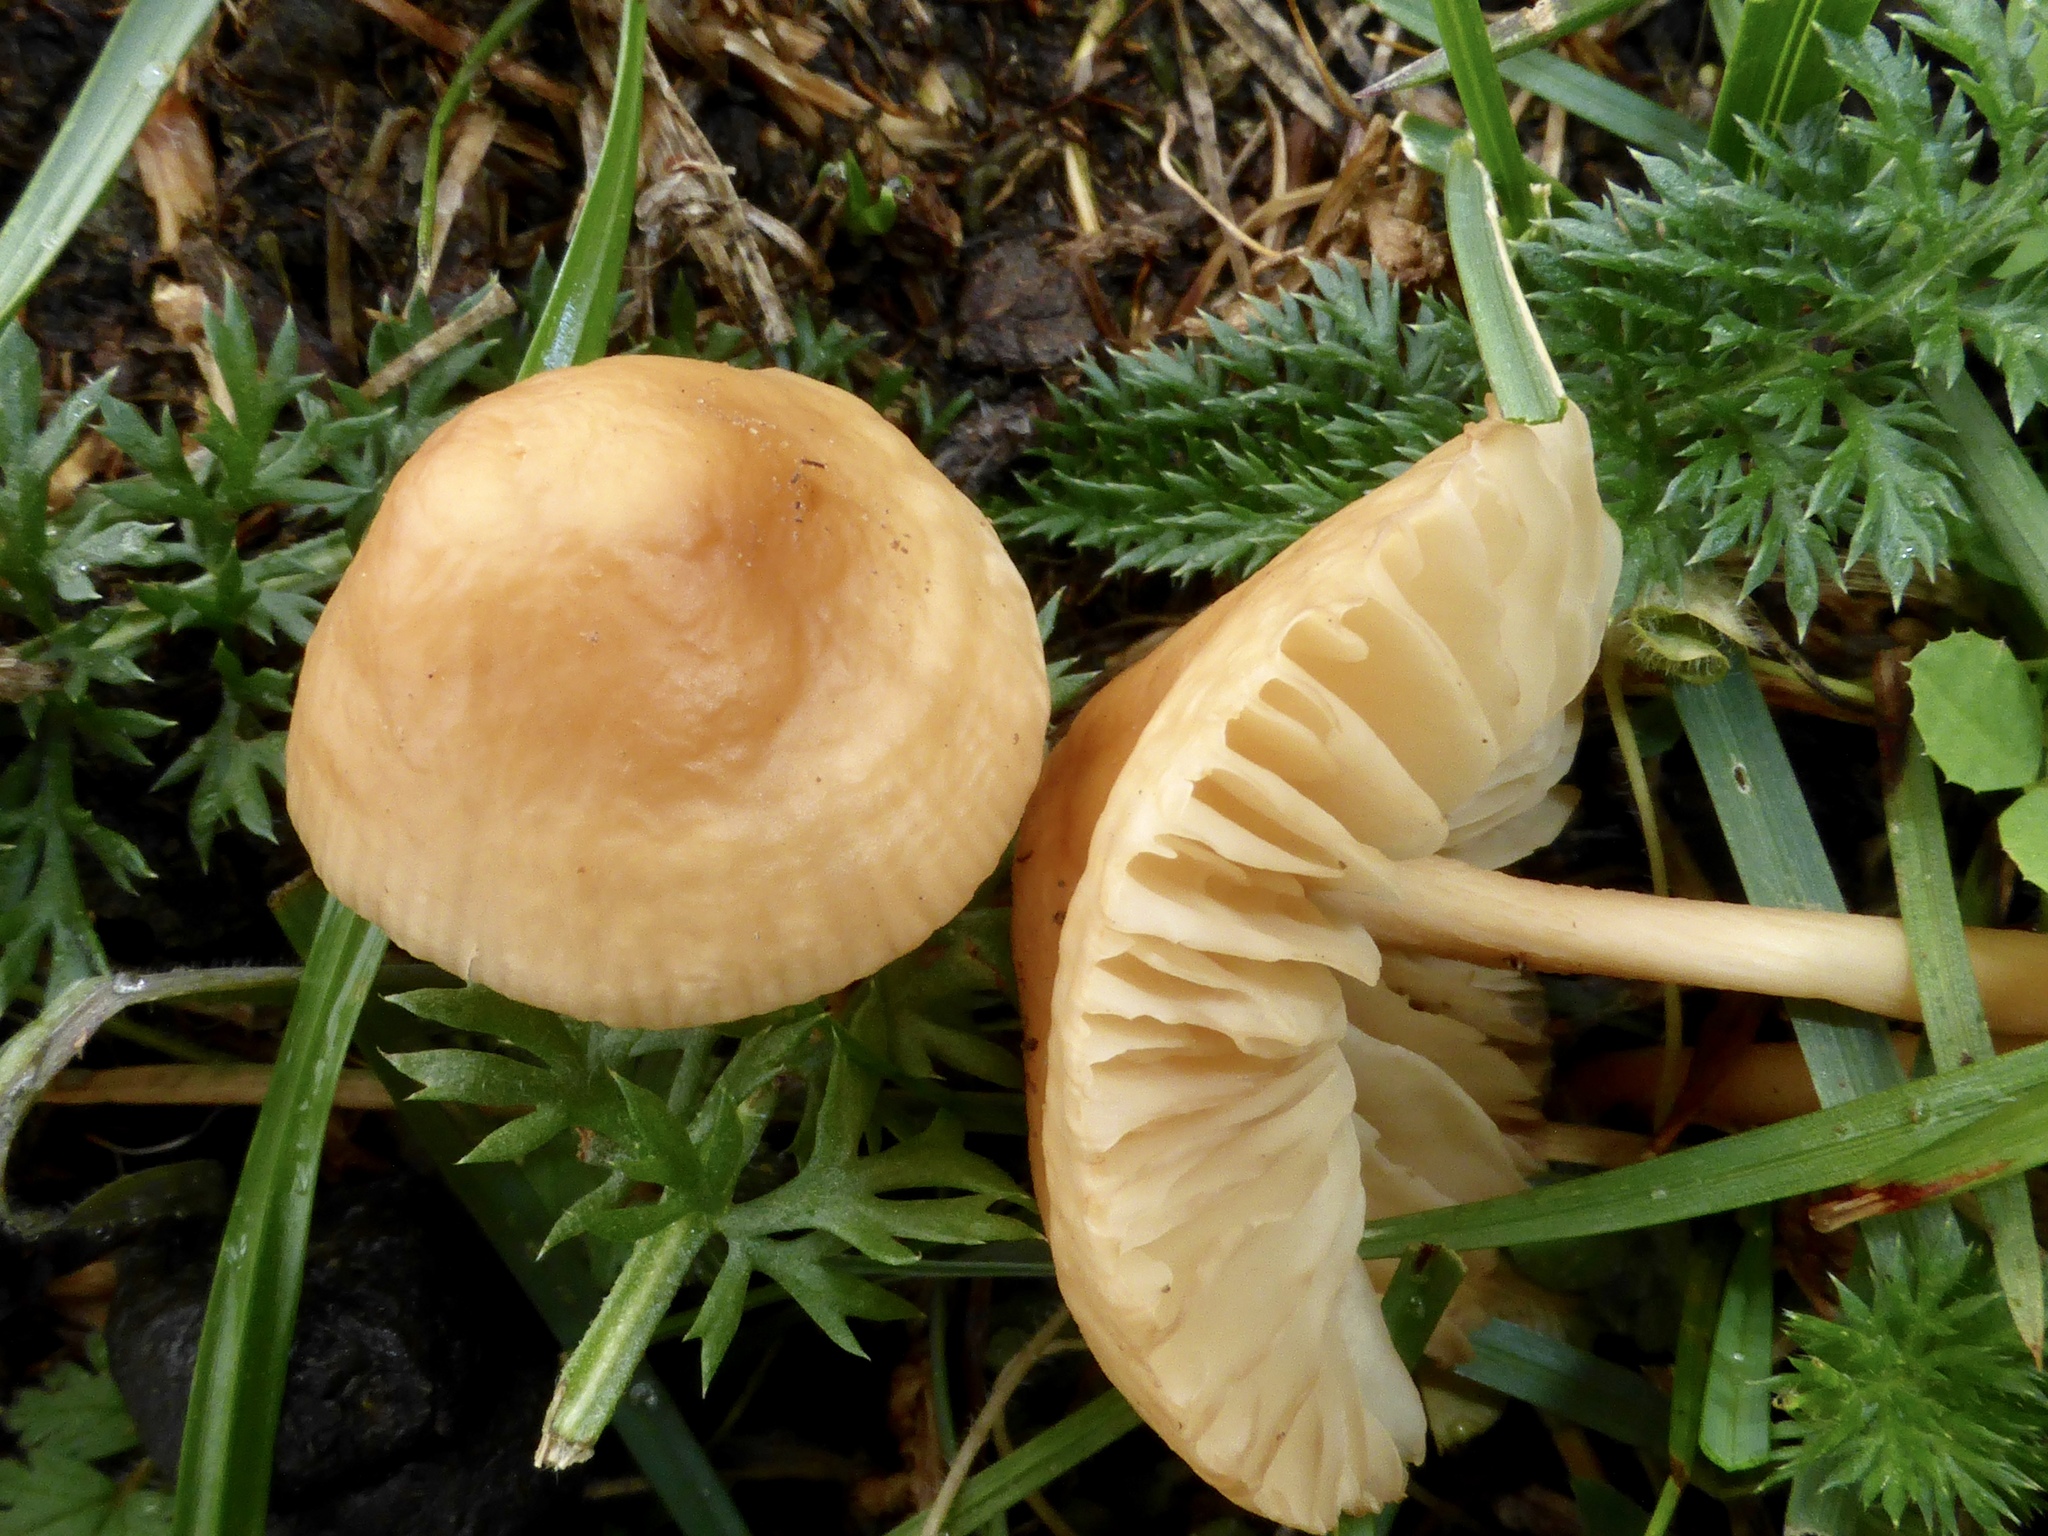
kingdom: Fungi
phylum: Basidiomycota
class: Agaricomycetes
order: Agaricales
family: Marasmiaceae
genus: Marasmius
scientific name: Marasmius oreades
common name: Fairy ring champignon
